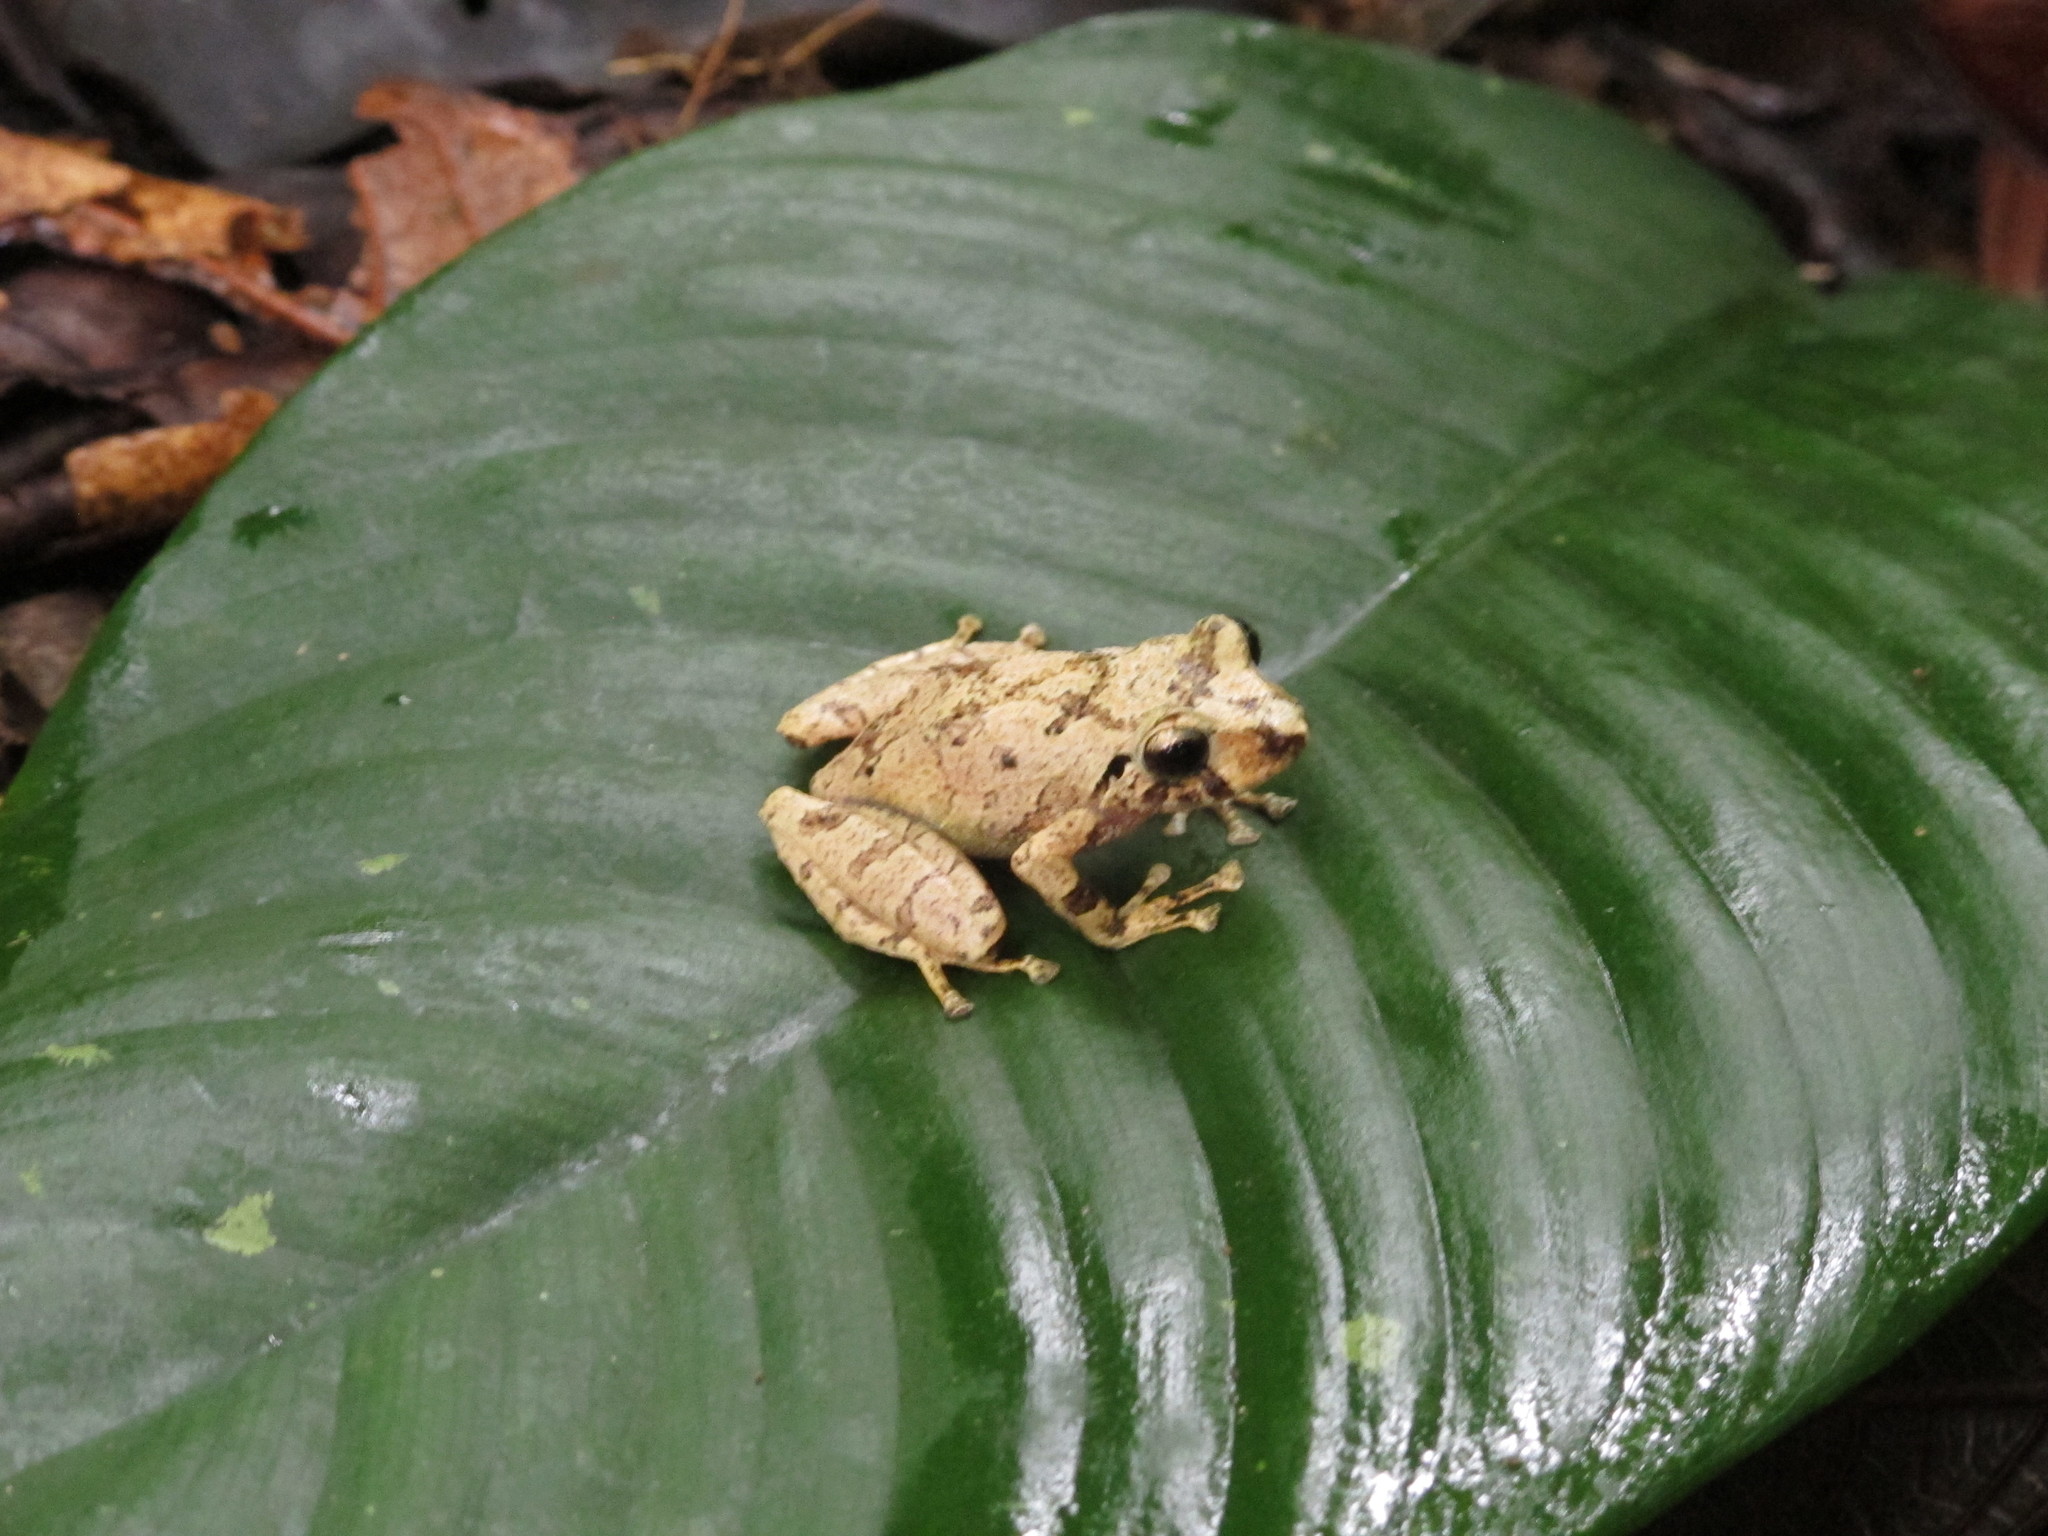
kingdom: Animalia
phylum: Chordata
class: Amphibia
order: Anura
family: Craugastoridae
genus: Pristimantis
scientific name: Pristimantis ockendeni
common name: Carabaya robber frog
